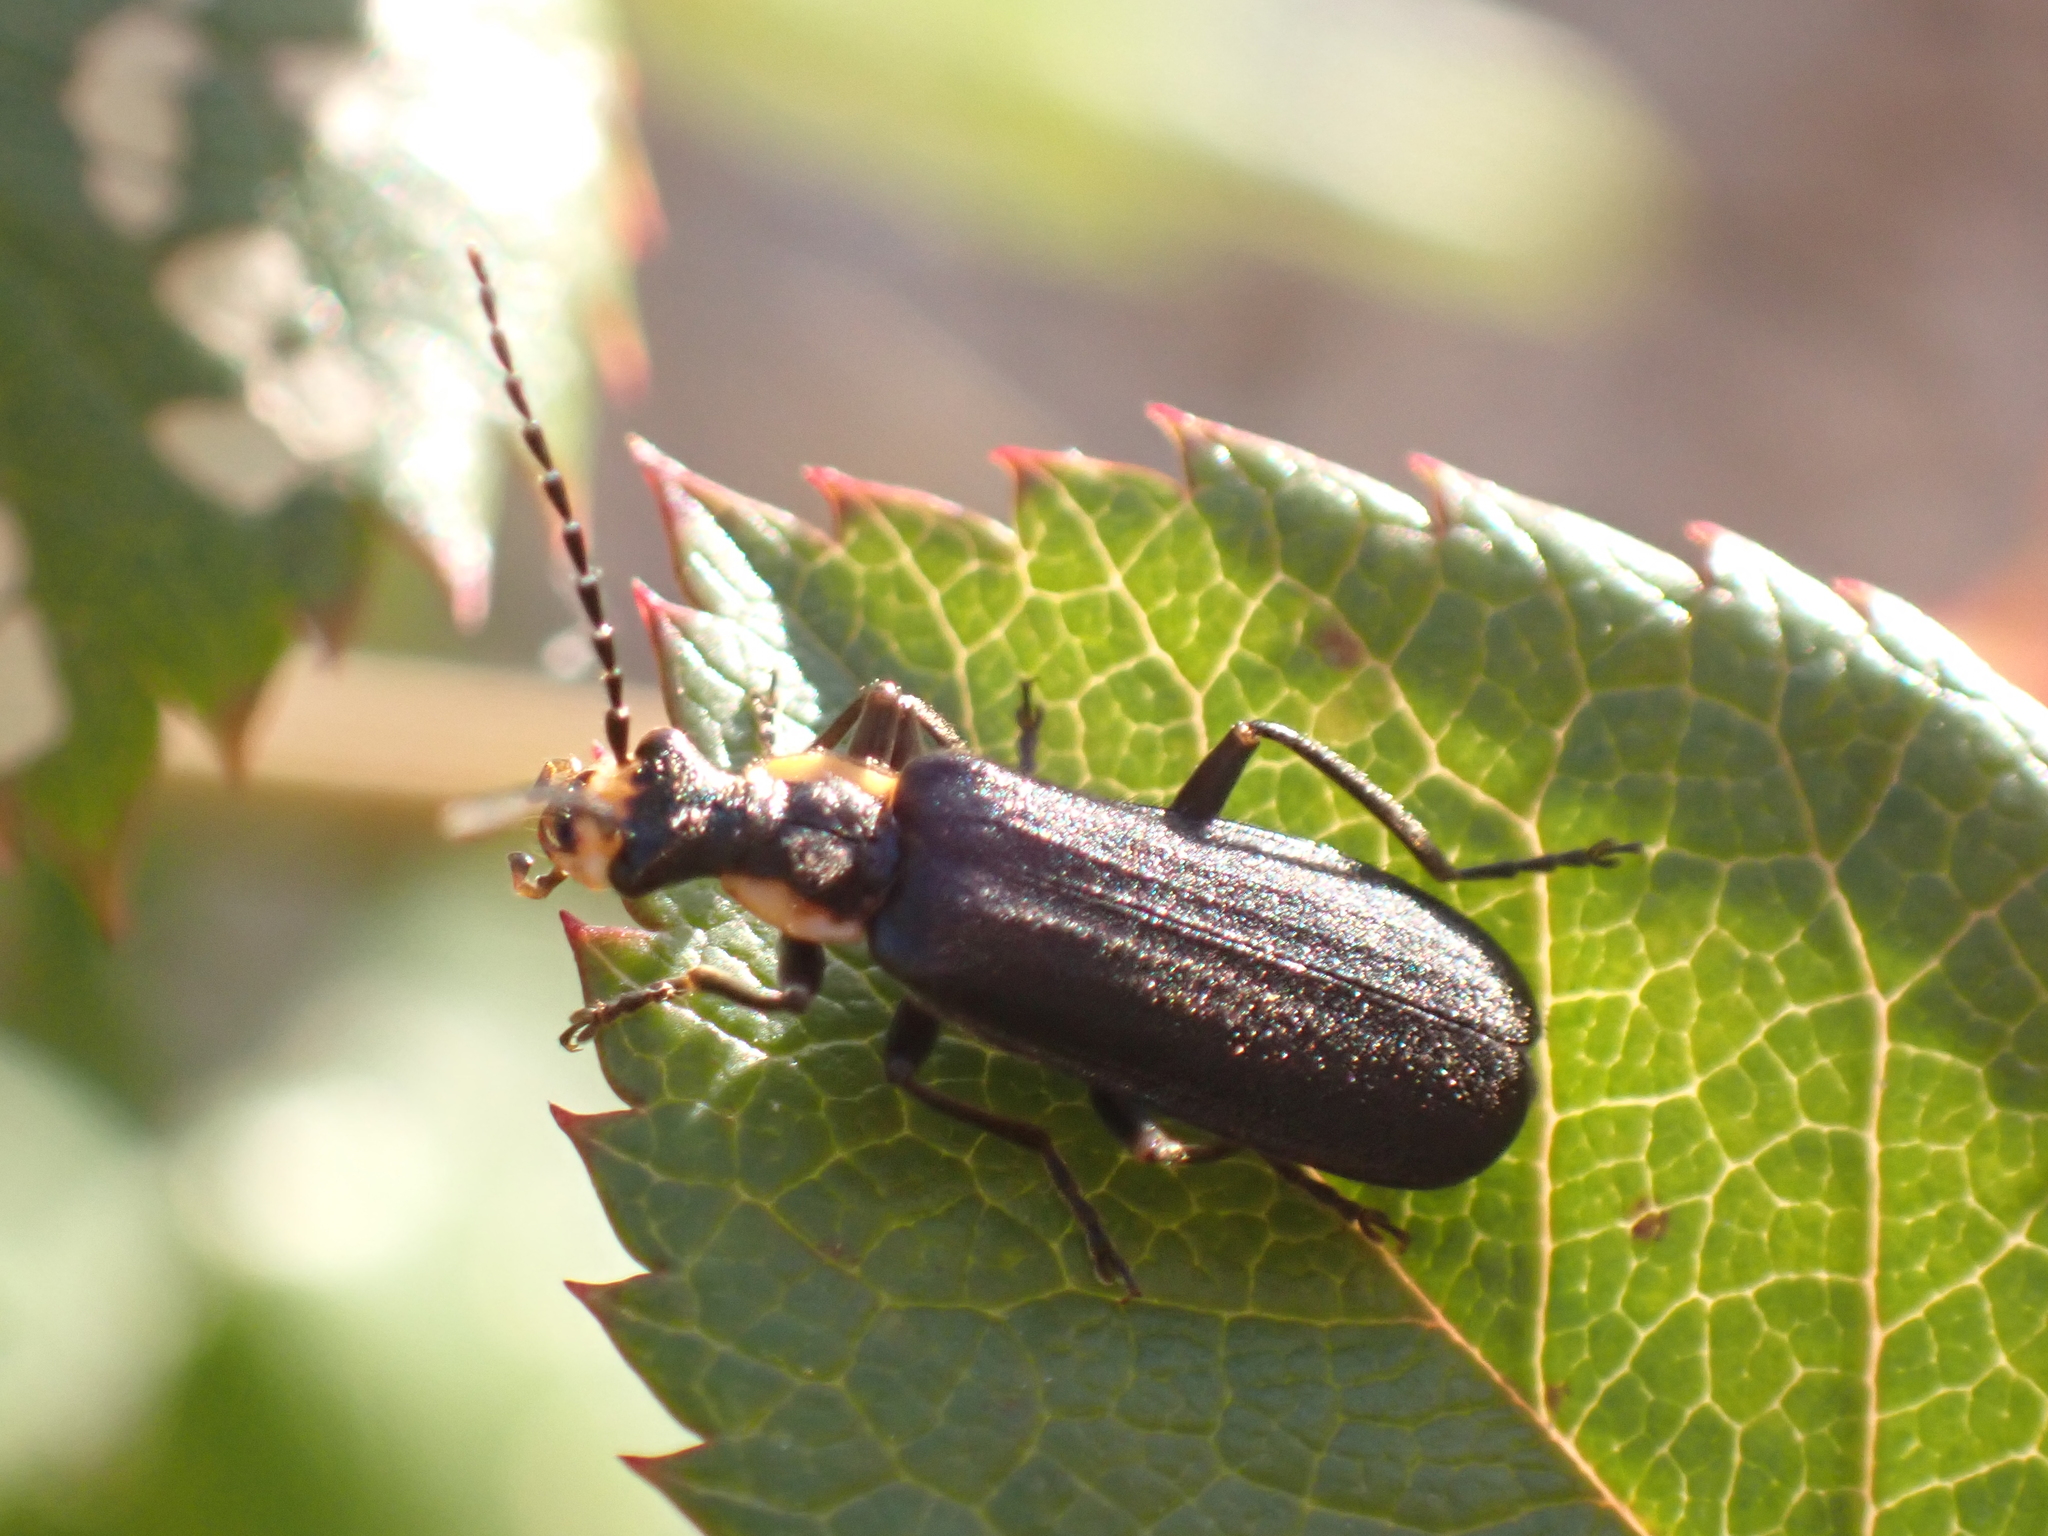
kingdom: Animalia
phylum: Arthropoda
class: Insecta
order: Coleoptera
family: Cantharidae
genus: Podabrus
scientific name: Podabrus rugosulus
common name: Wrinkled soldier beetle
